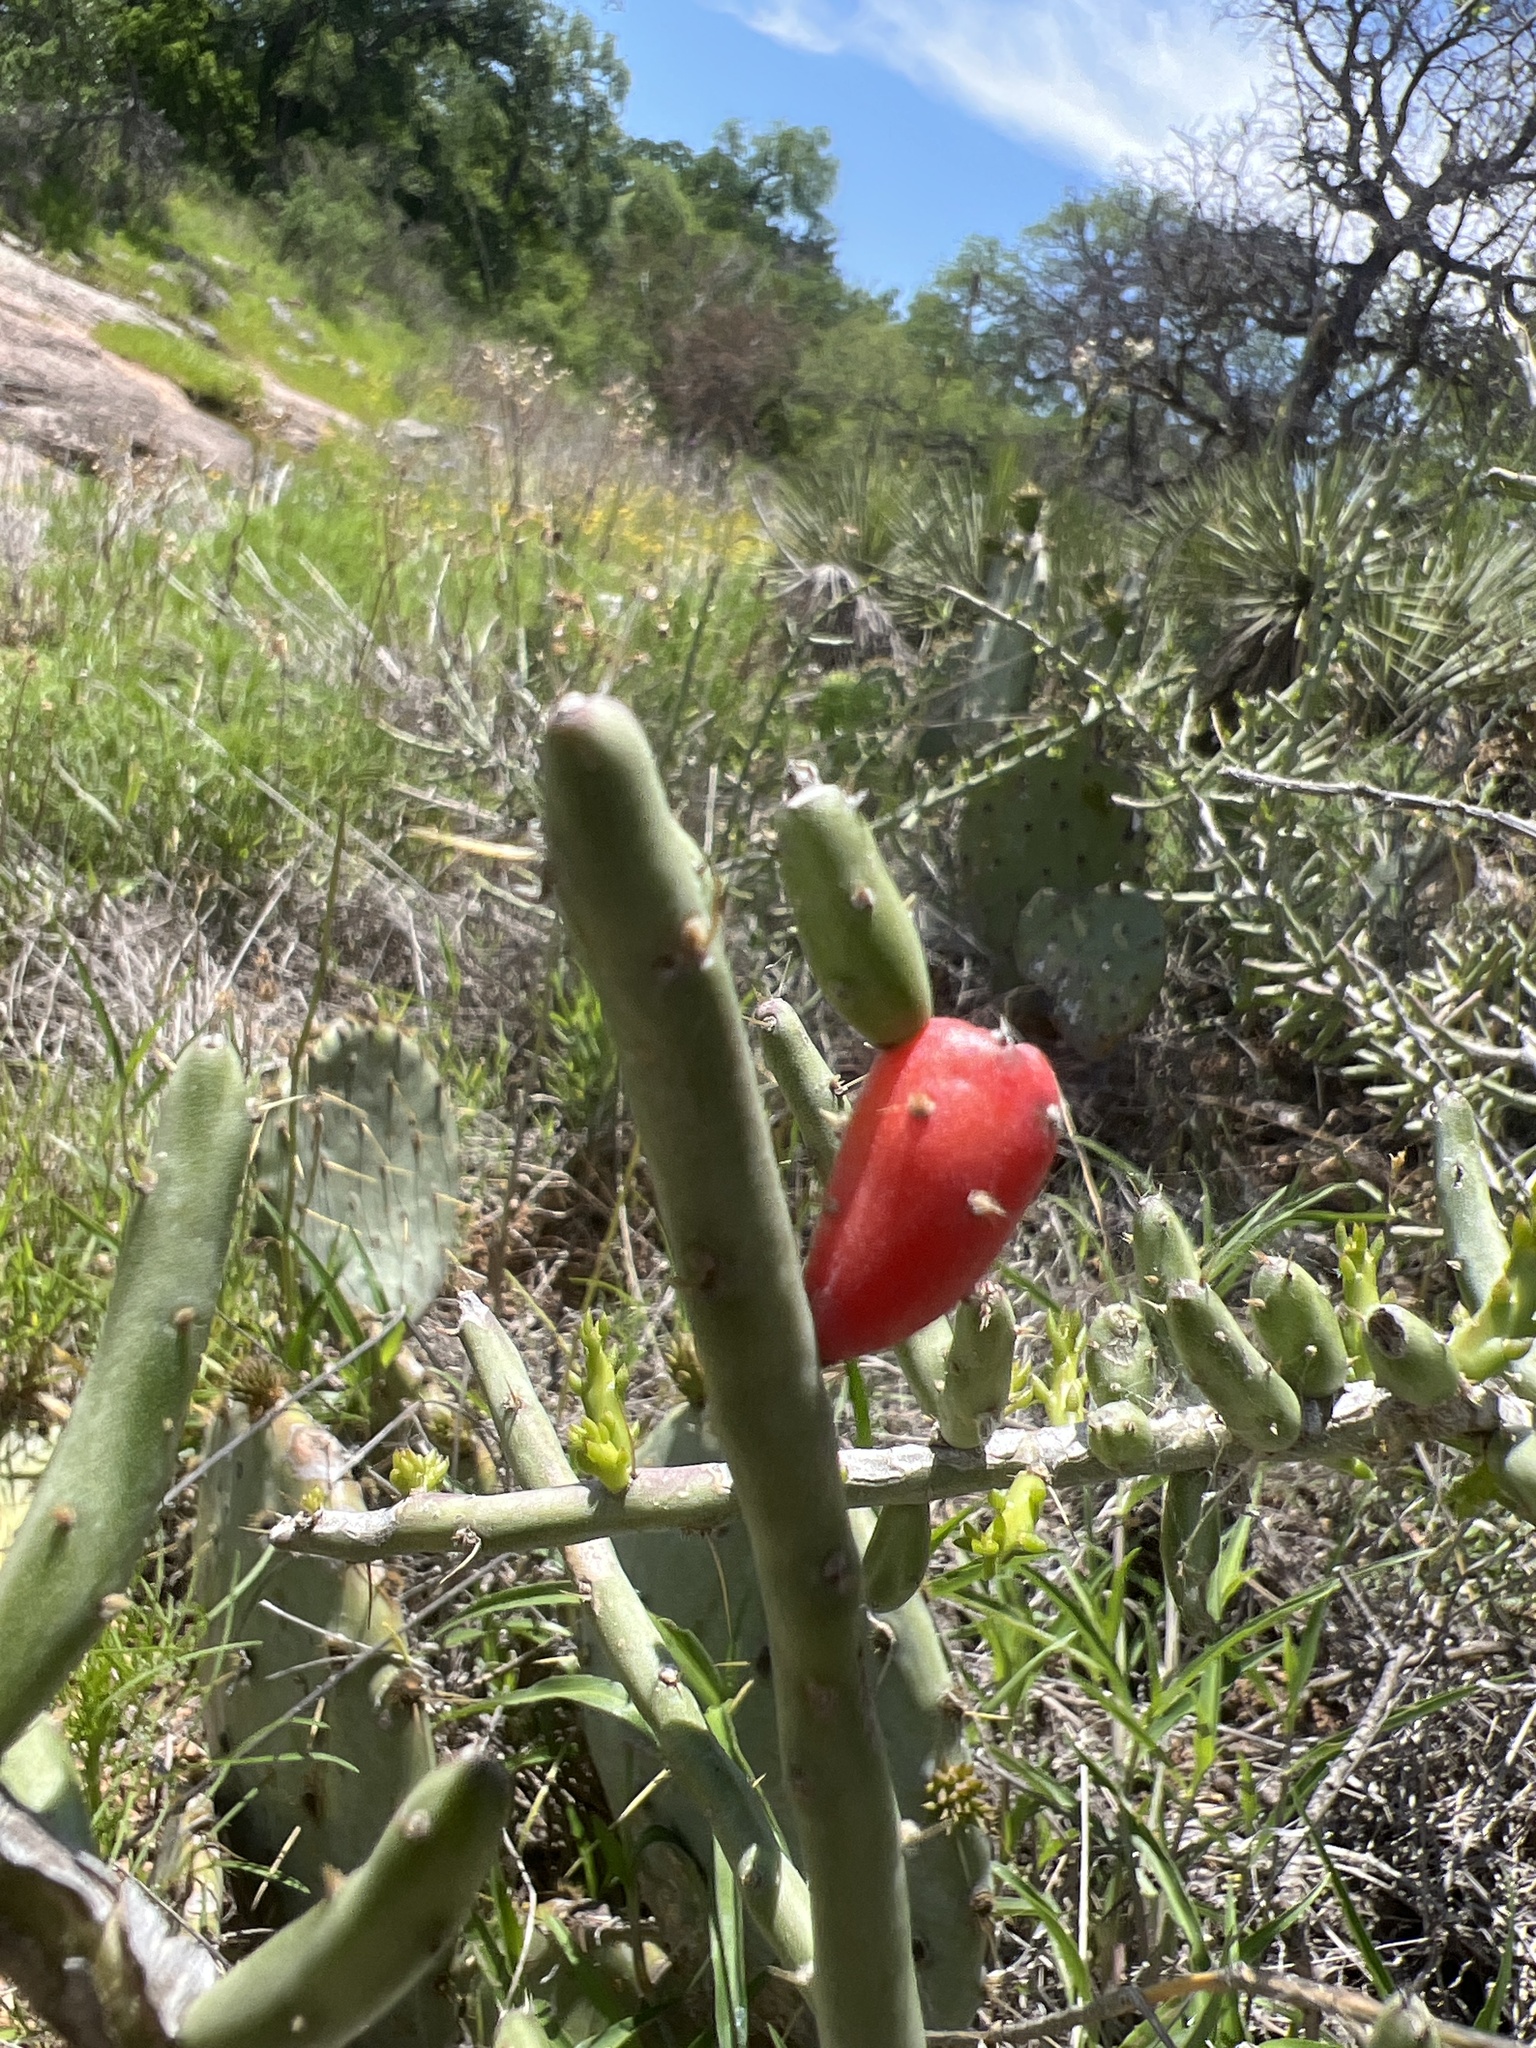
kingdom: Plantae
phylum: Tracheophyta
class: Magnoliopsida
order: Caryophyllales
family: Cactaceae
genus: Cylindropuntia
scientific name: Cylindropuntia leptocaulis
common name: Christmas cactus
